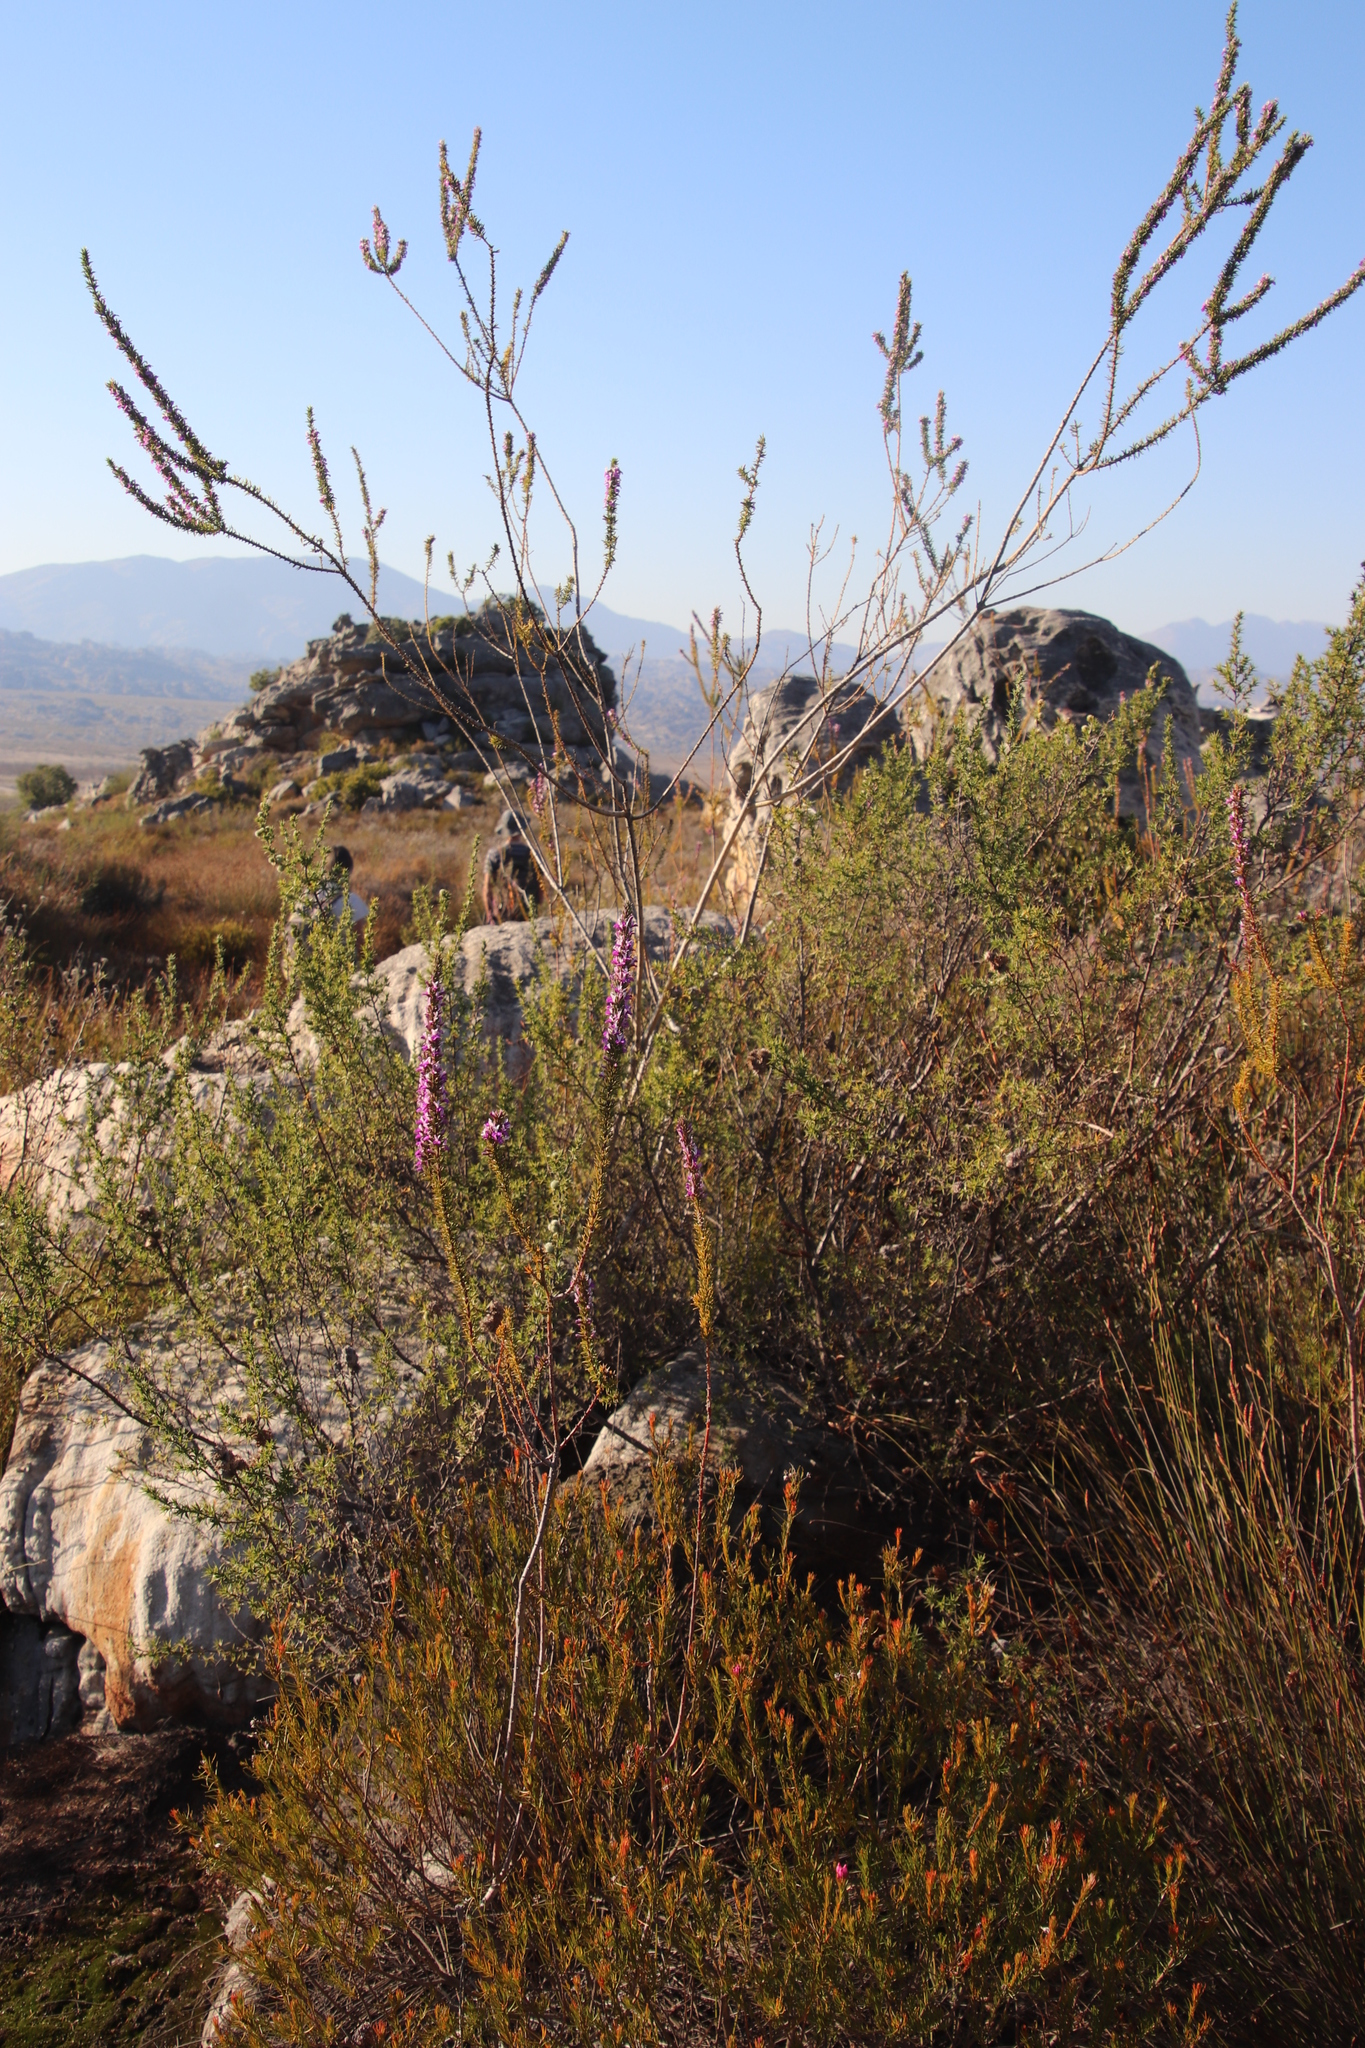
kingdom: Plantae
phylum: Tracheophyta
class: Magnoliopsida
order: Fabales
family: Polygalaceae
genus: Muraltia
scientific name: Muraltia heisteria
